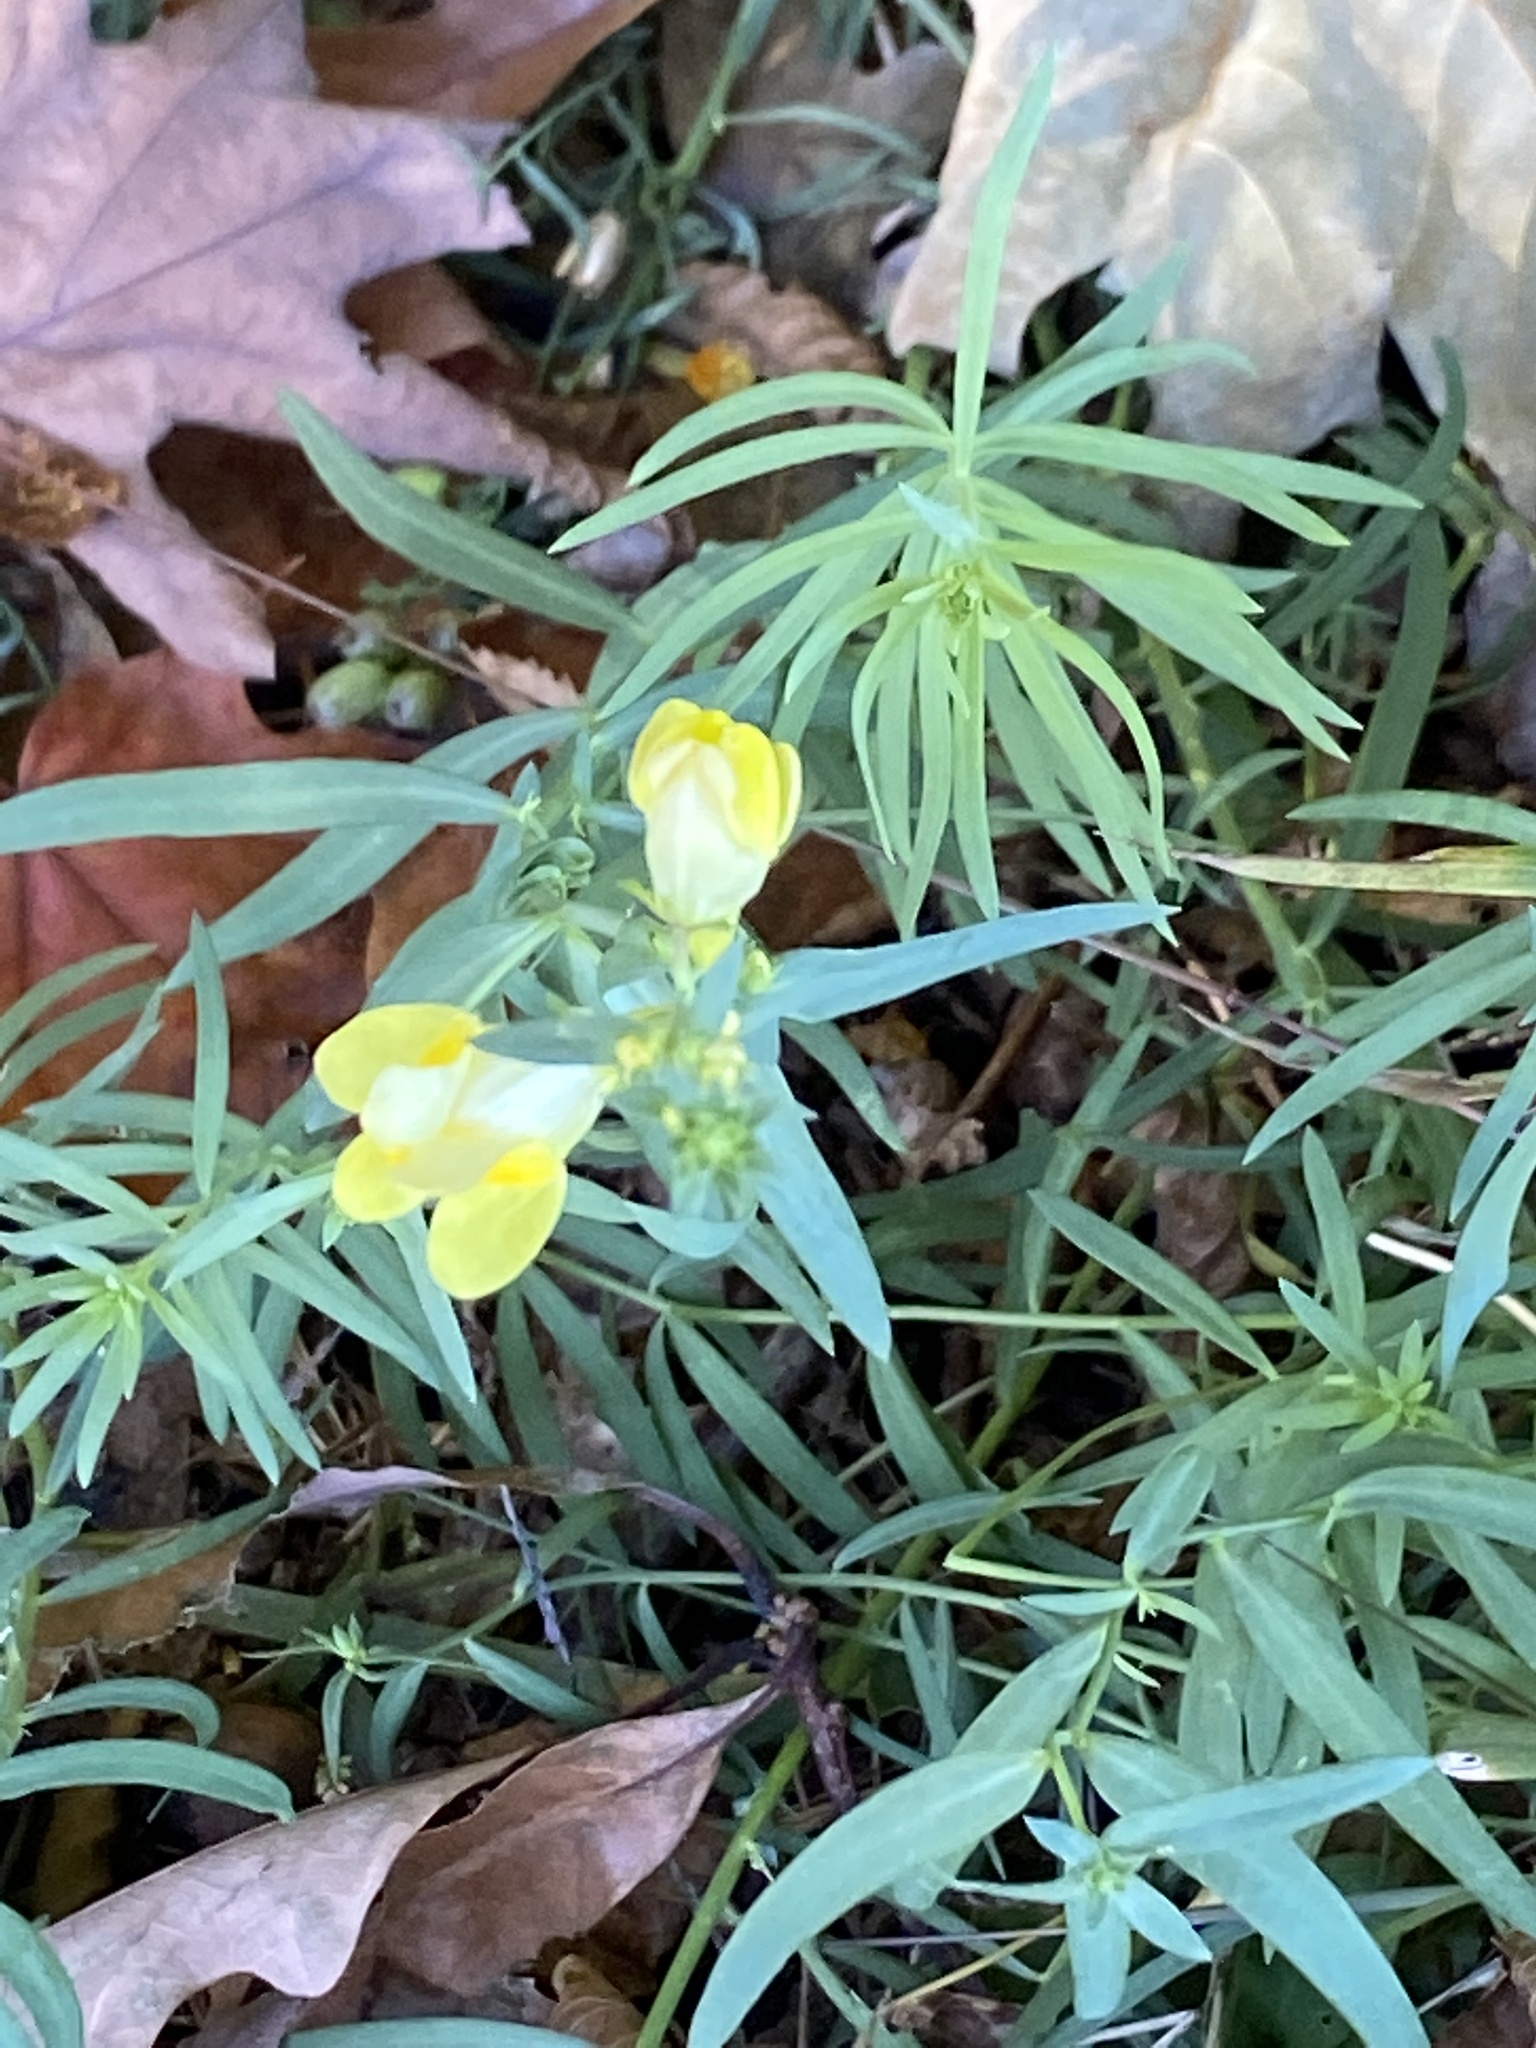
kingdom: Plantae
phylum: Tracheophyta
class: Magnoliopsida
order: Lamiales
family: Plantaginaceae
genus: Linaria
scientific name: Linaria vulgaris
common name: Butter and eggs
